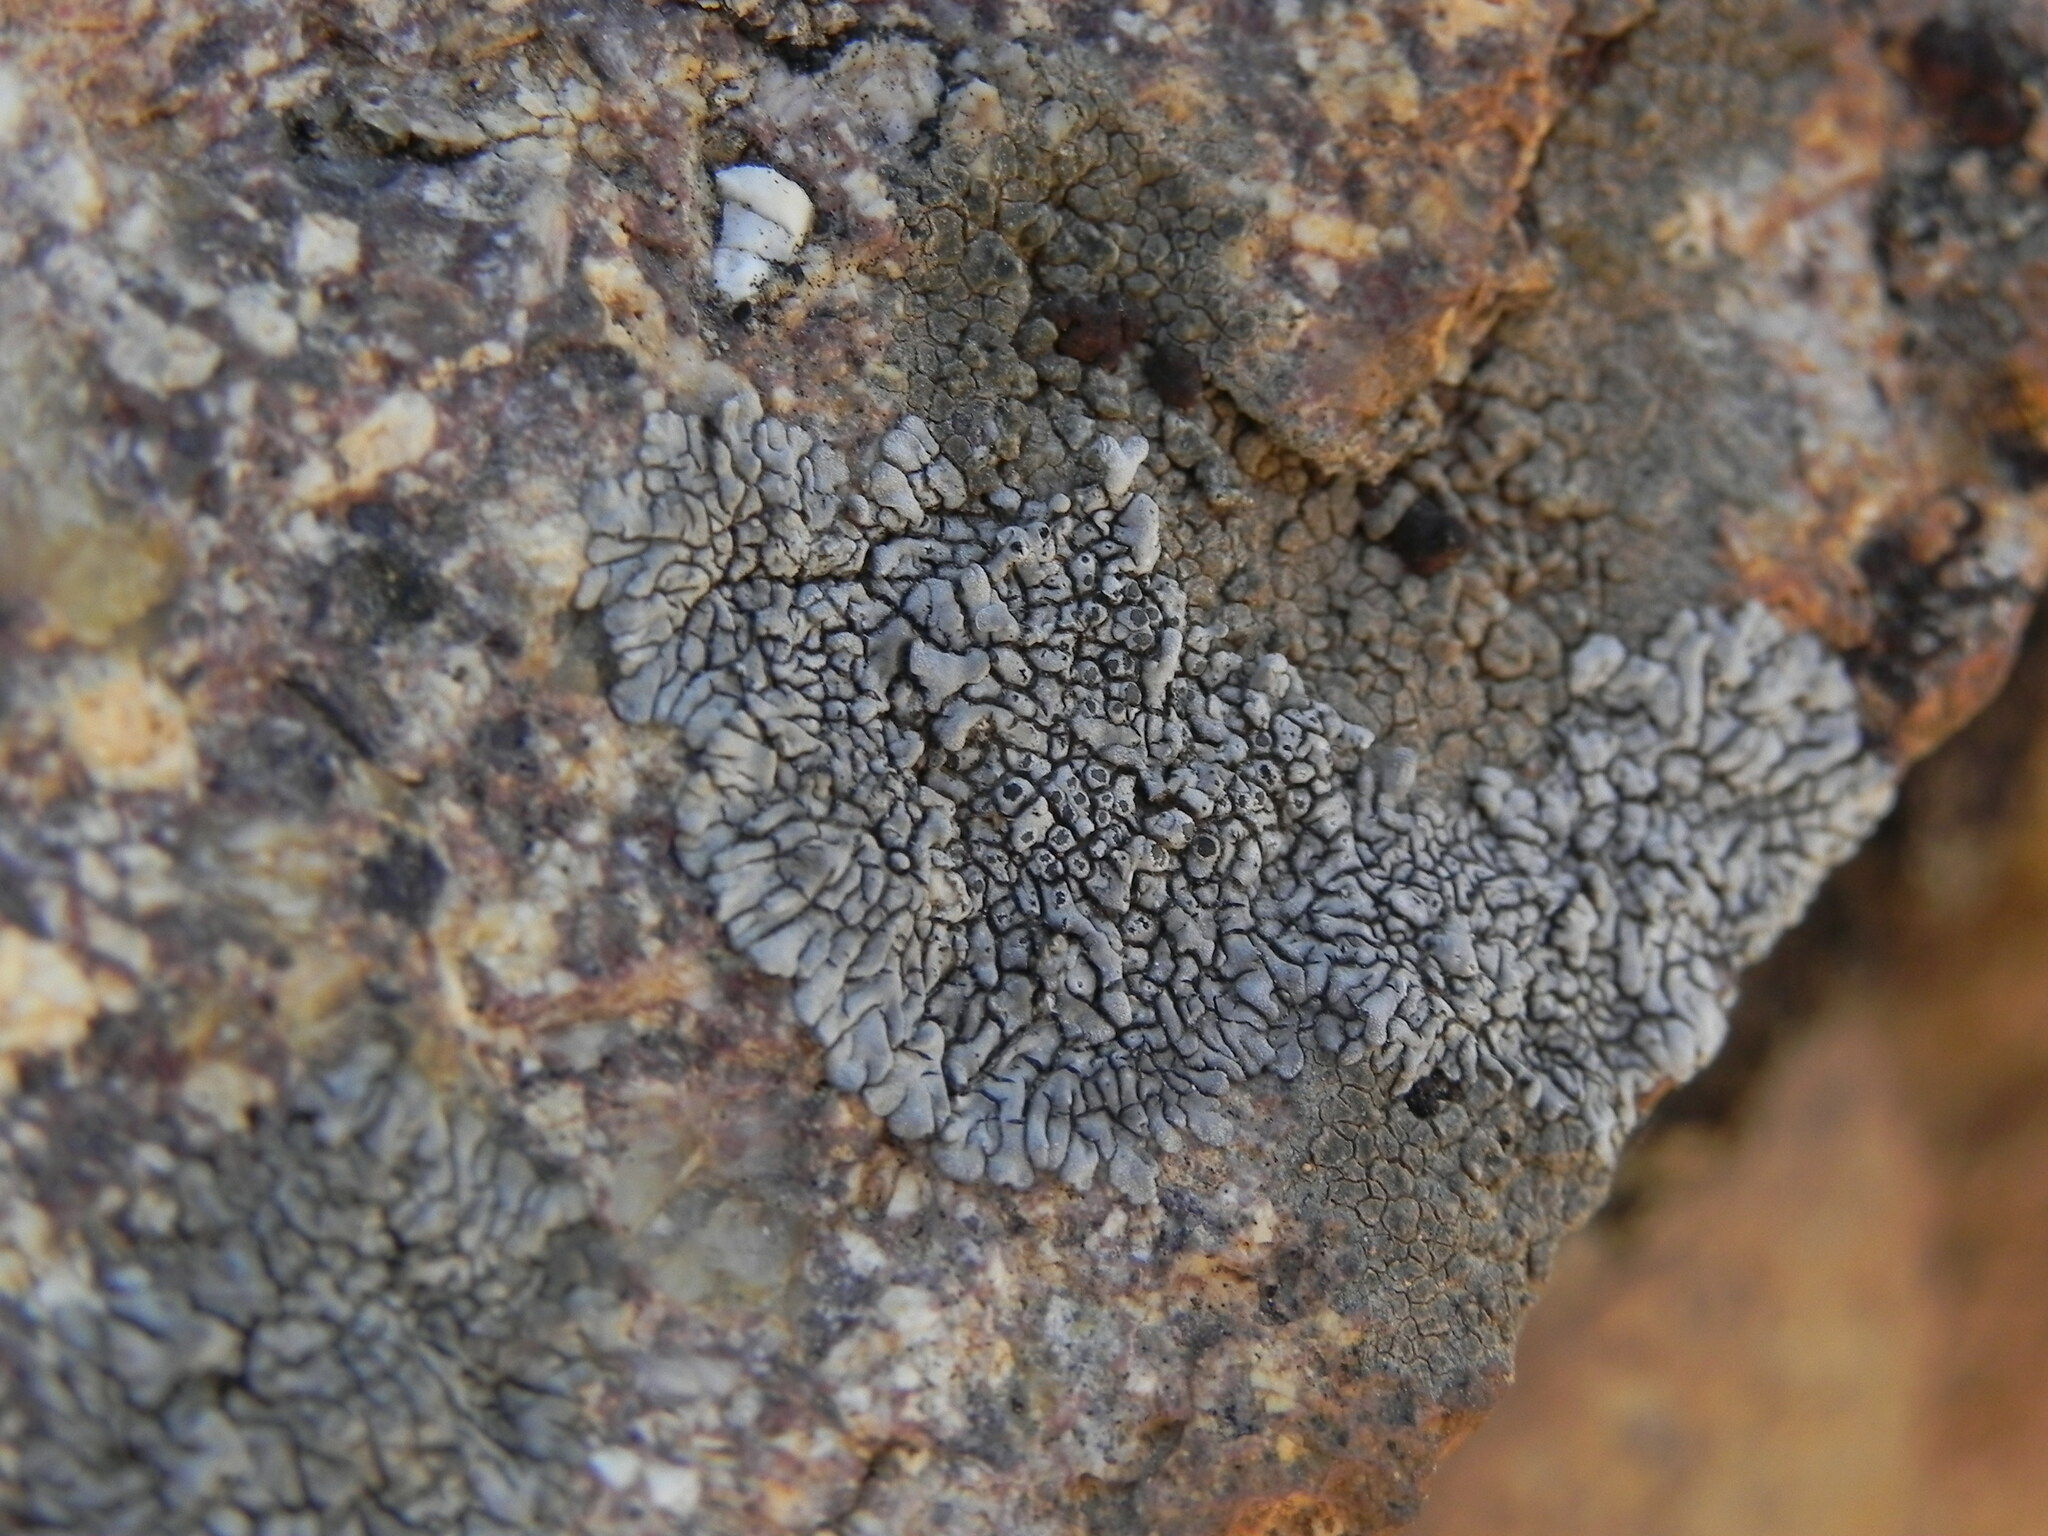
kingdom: Fungi
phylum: Ascomycota
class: Lecanoromycetes
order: Caliciales
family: Caliciaceae
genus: Dimelaena
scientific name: Dimelaena radiata
